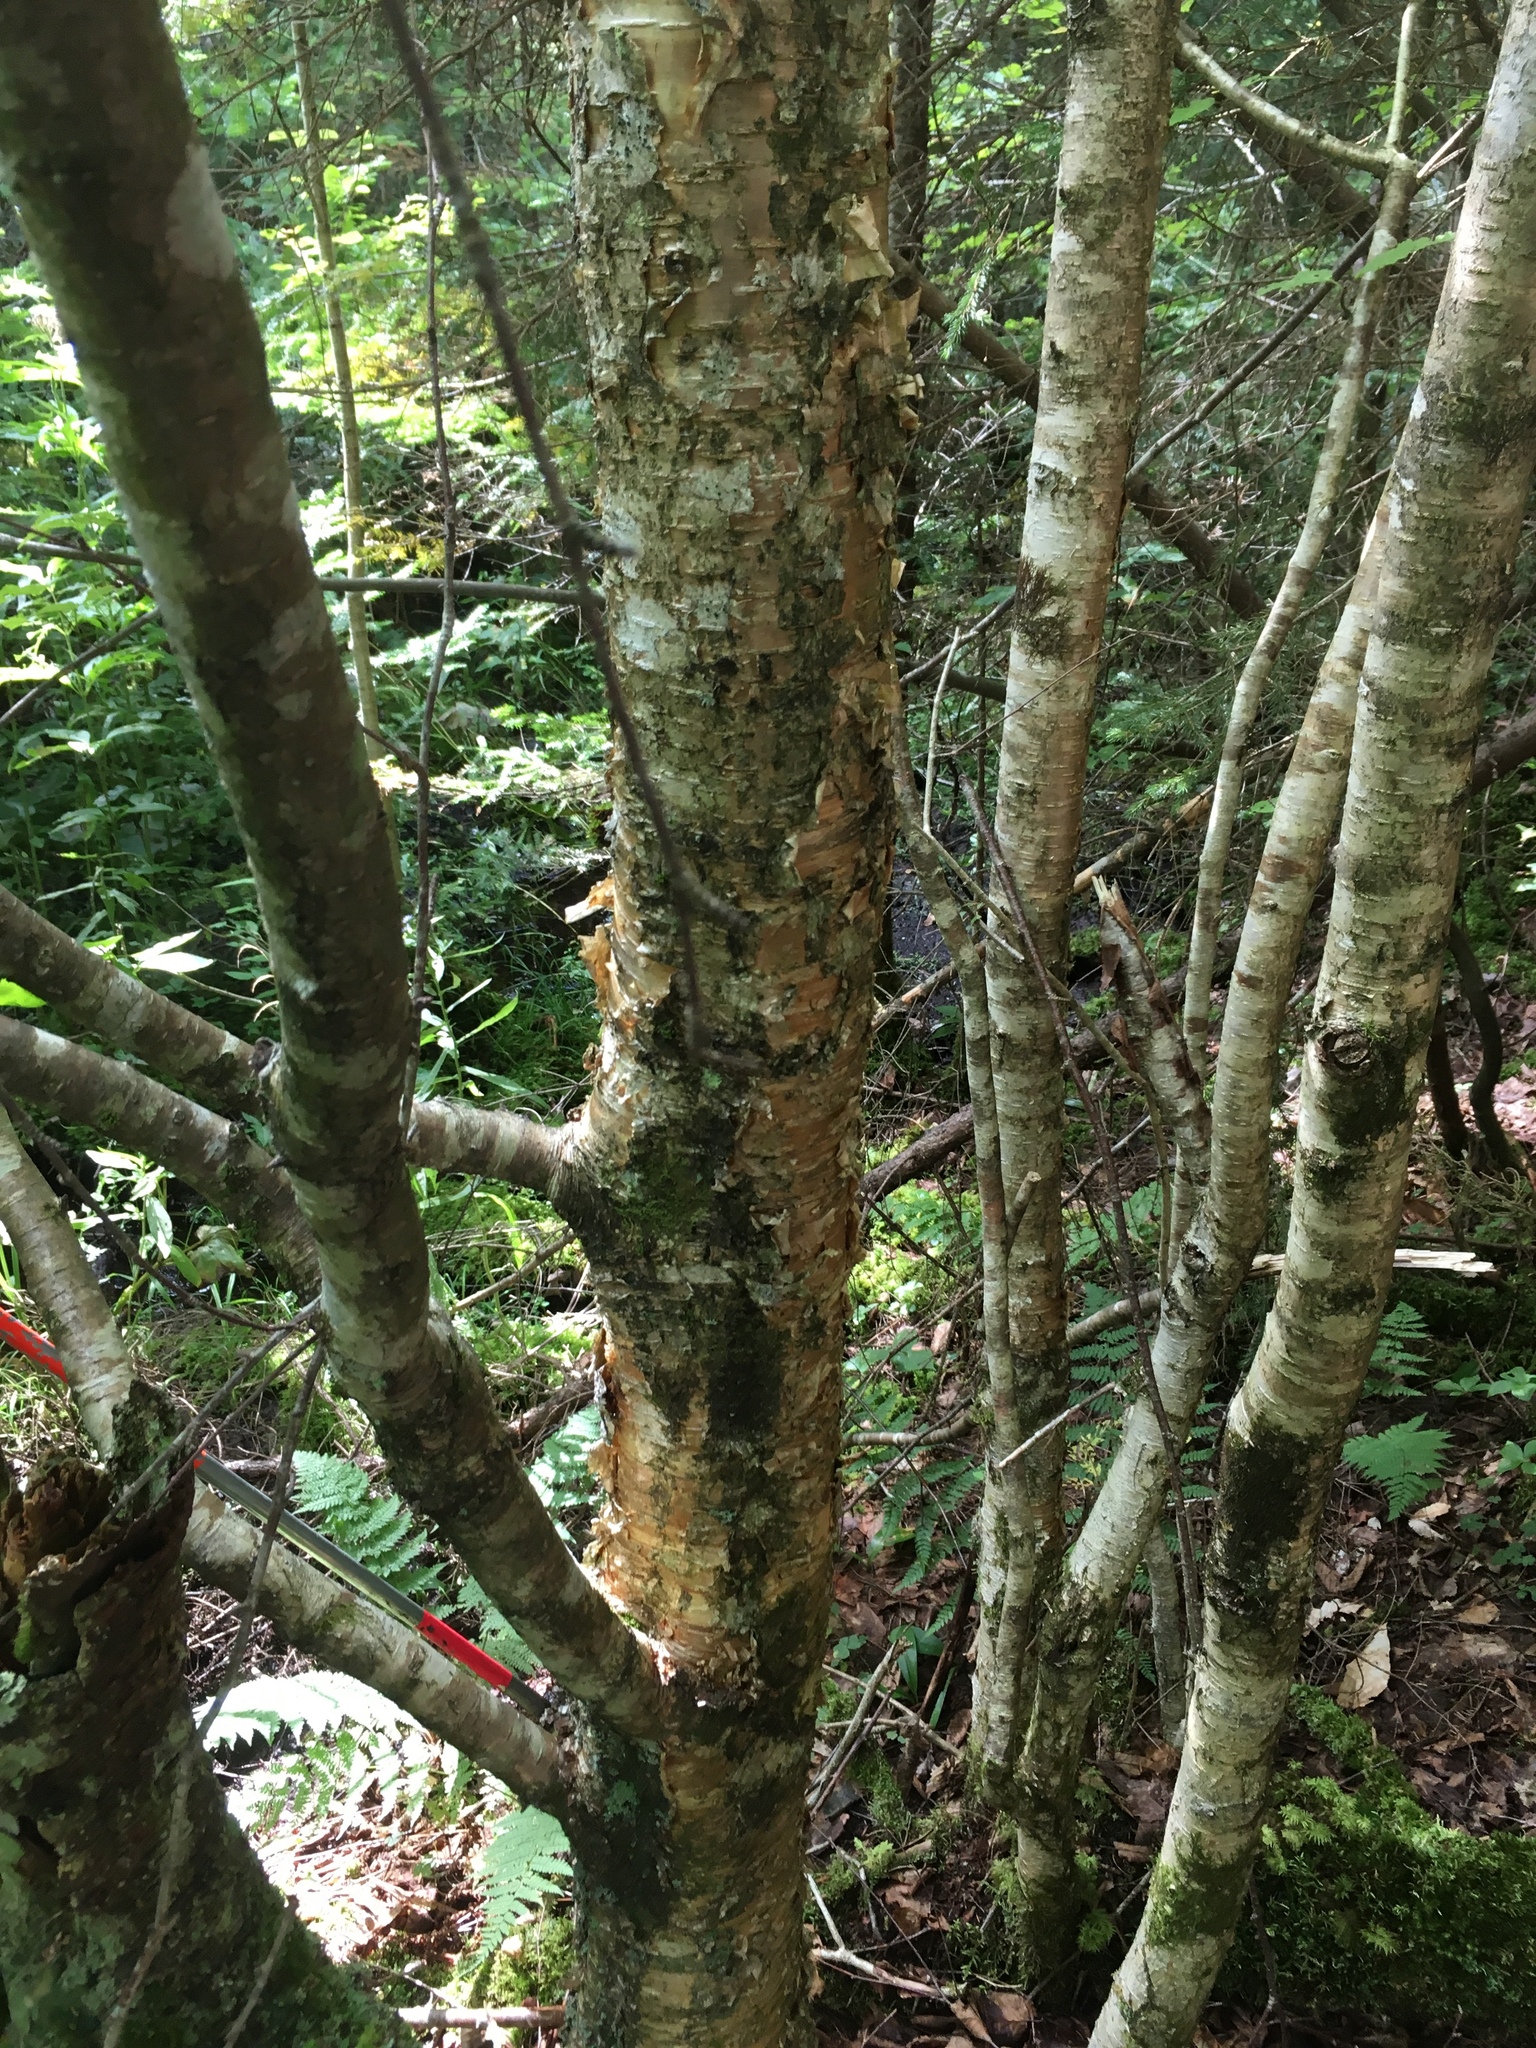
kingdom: Plantae
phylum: Tracheophyta
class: Magnoliopsida
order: Fagales
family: Betulaceae
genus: Betula
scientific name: Betula alleghaniensis
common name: Yellow birch
